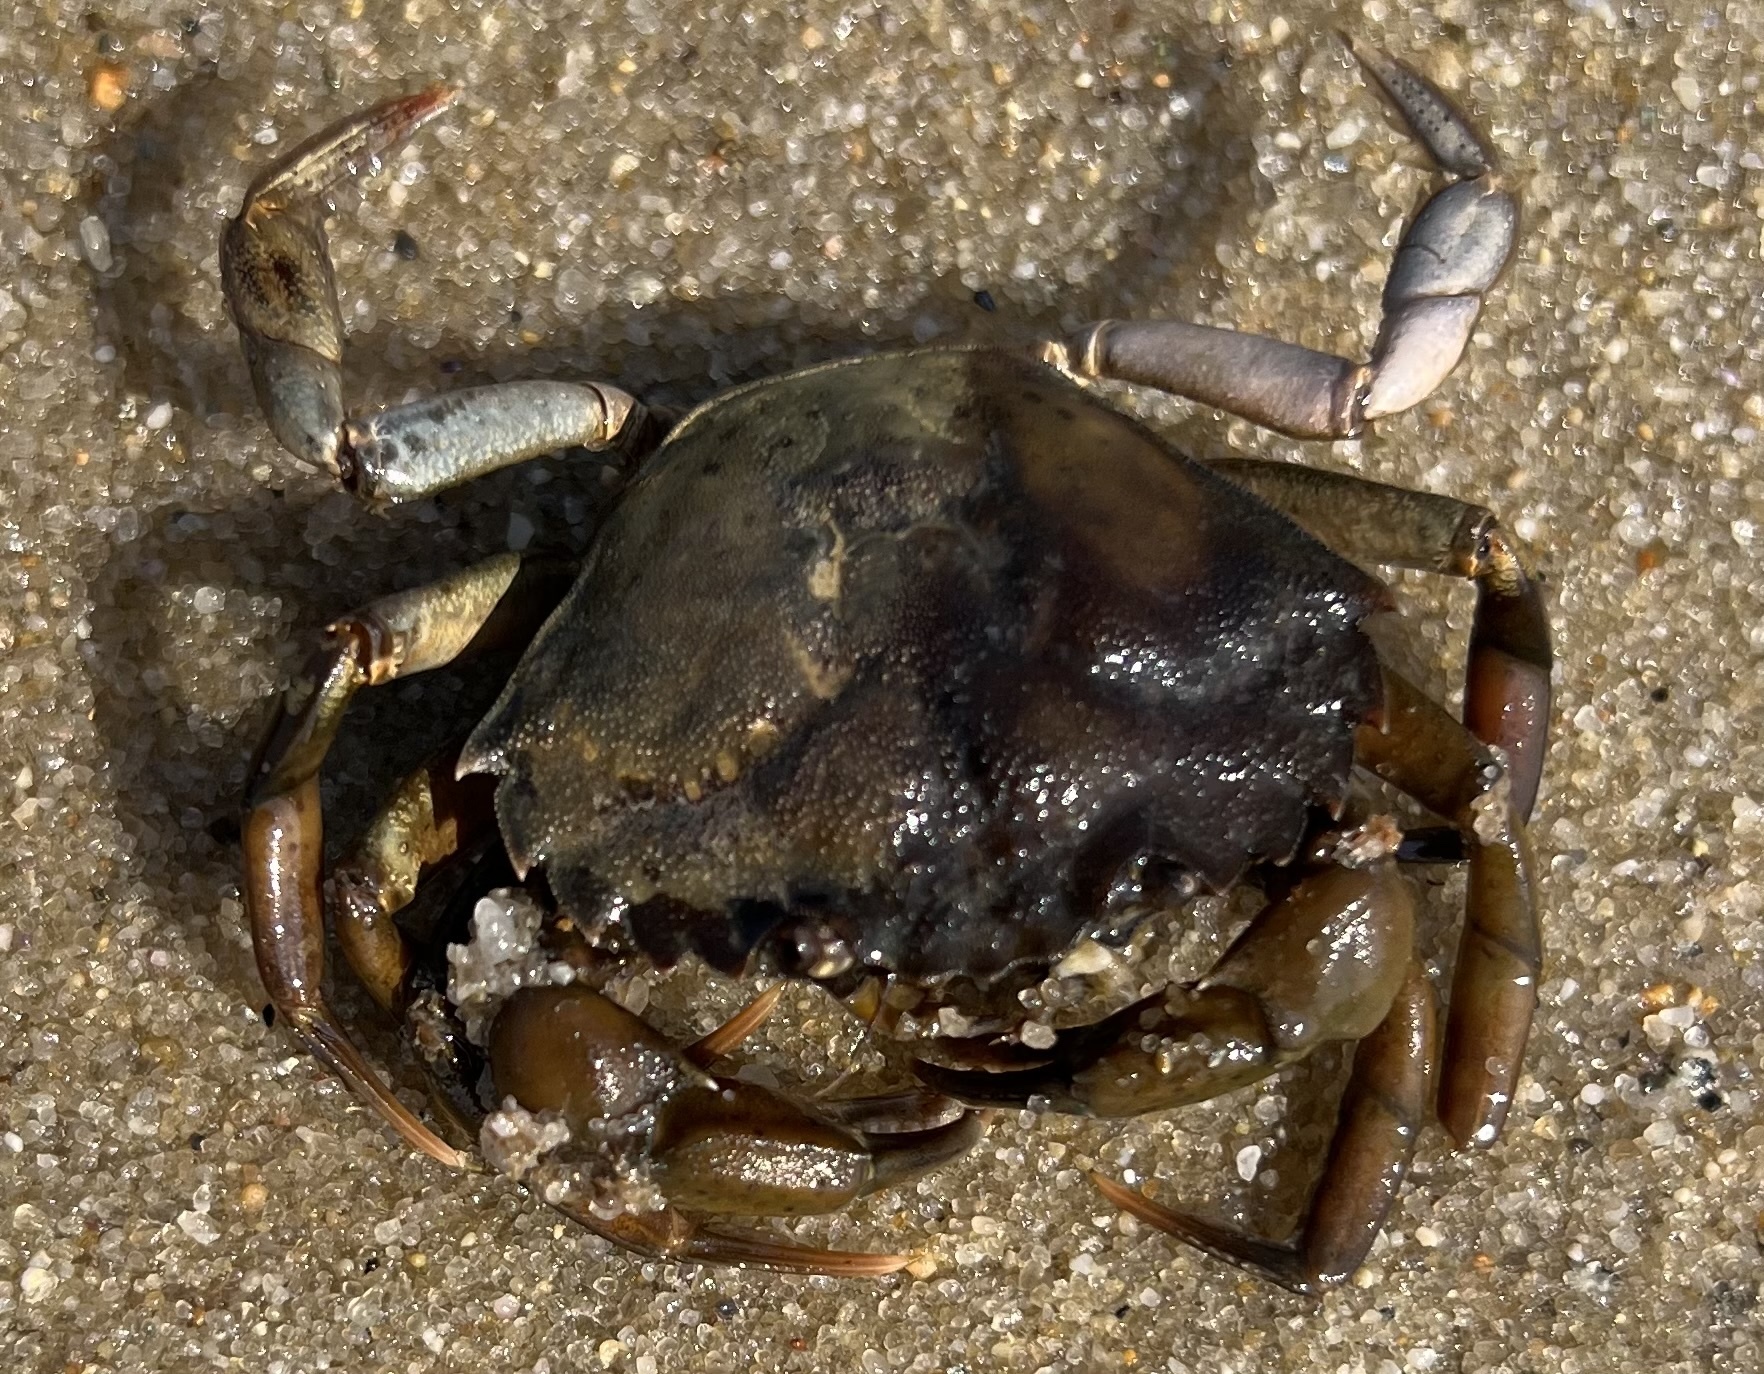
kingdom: Animalia
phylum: Arthropoda
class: Malacostraca
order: Decapoda
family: Carcinidae
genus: Carcinus
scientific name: Carcinus maenas
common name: European green crab
